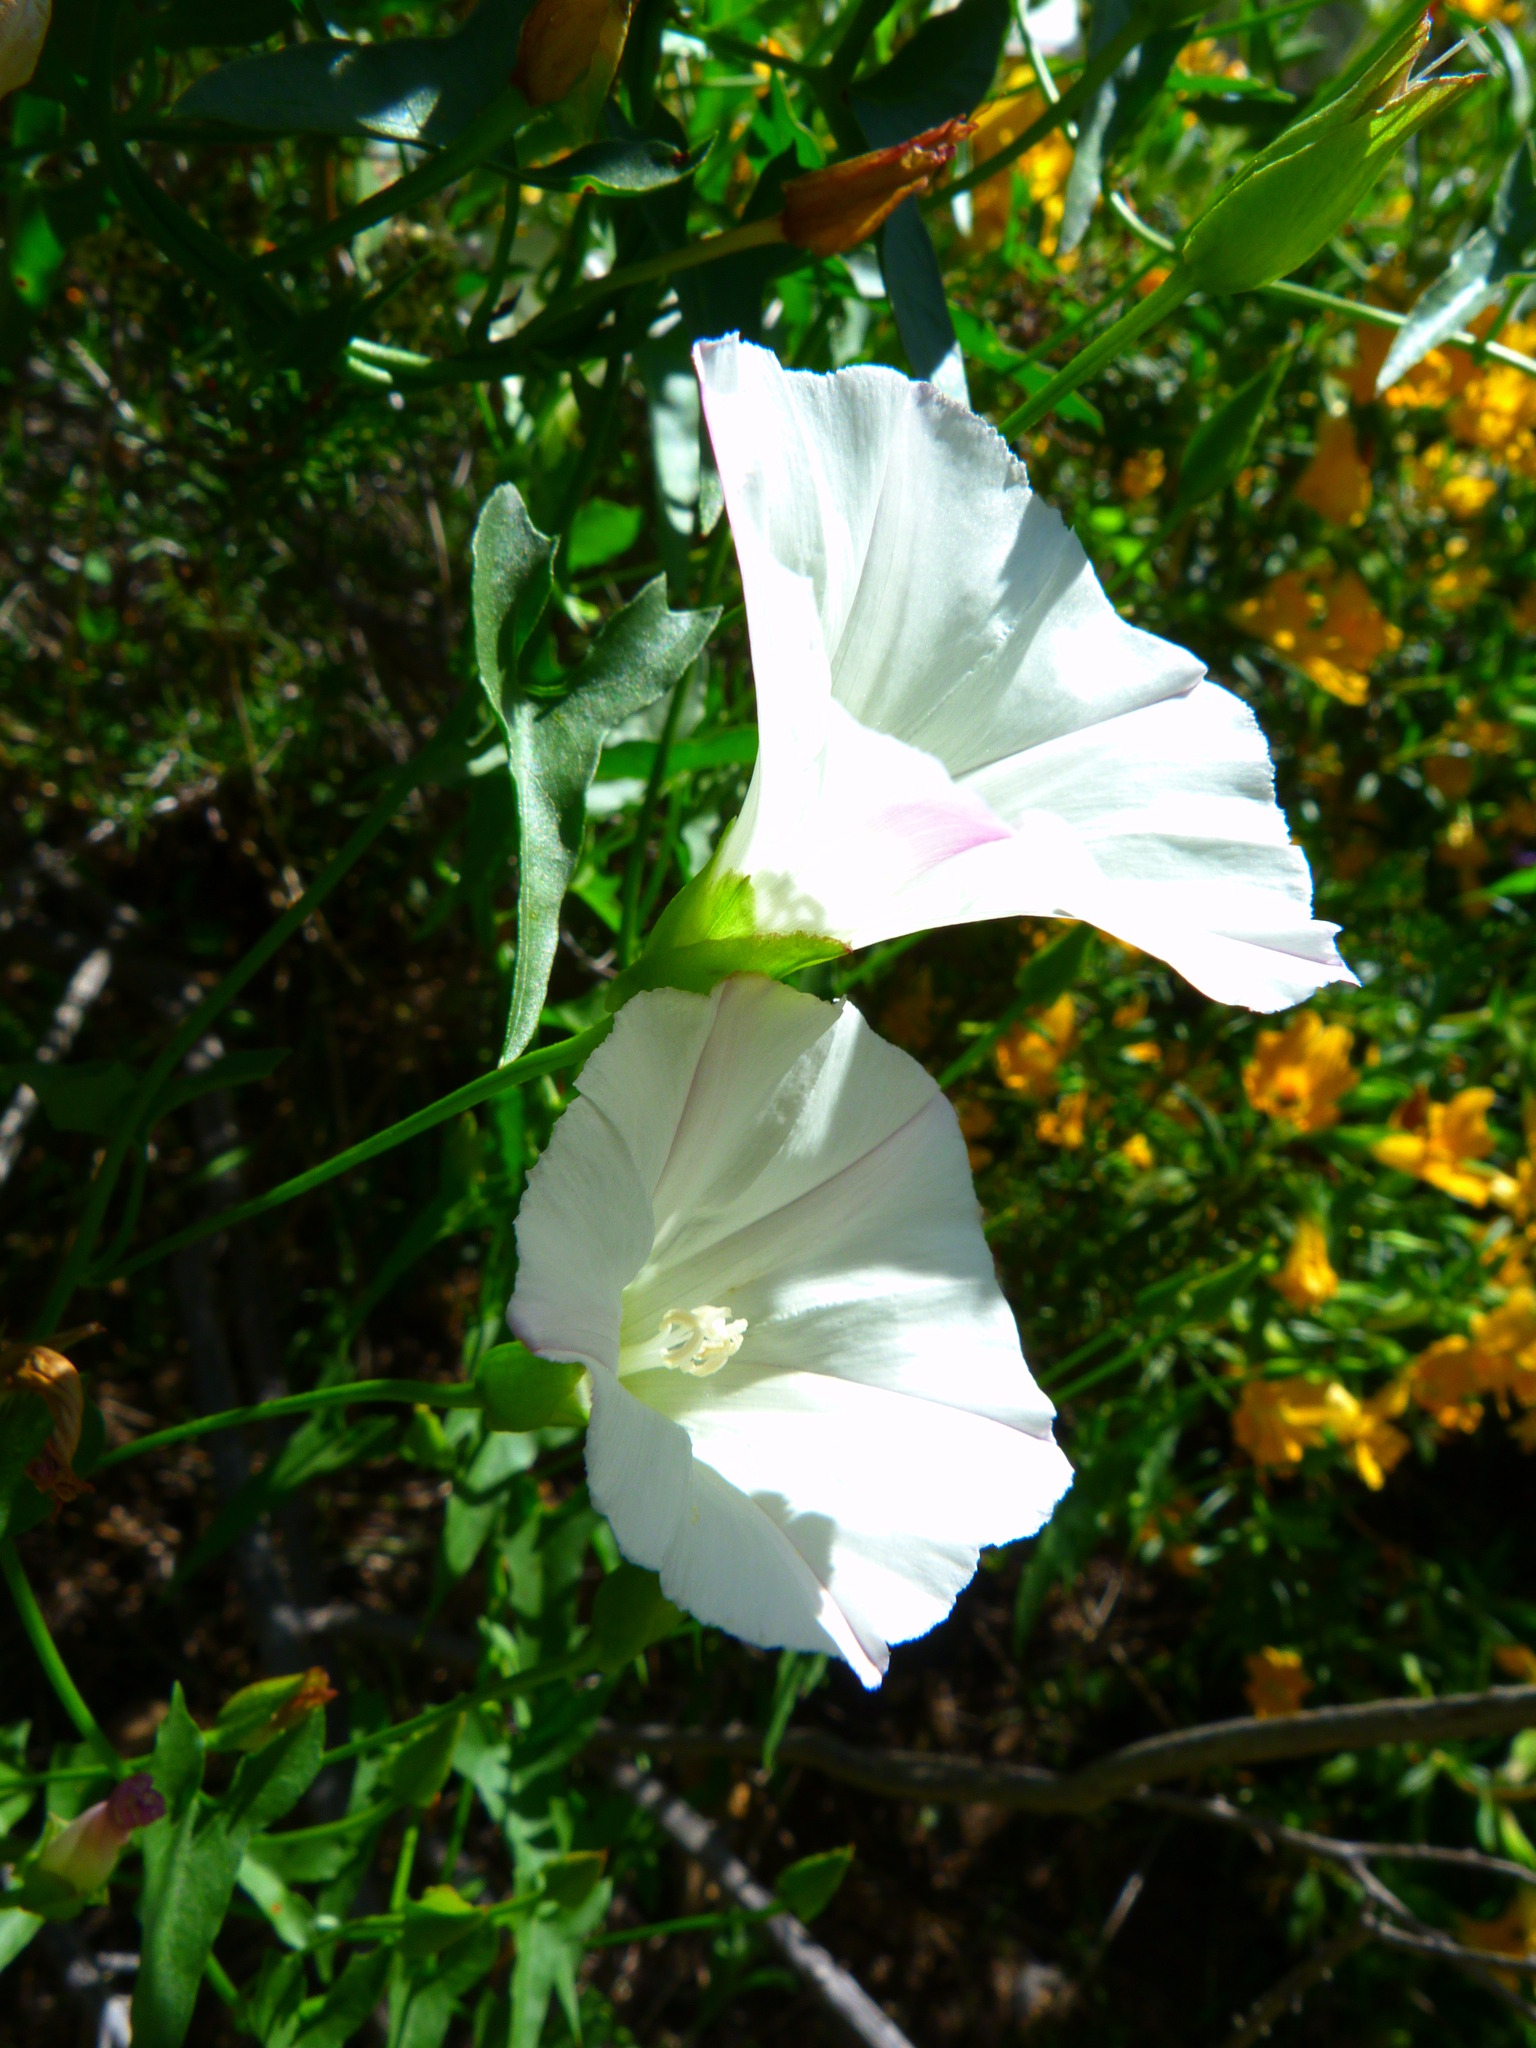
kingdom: Plantae
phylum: Tracheophyta
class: Magnoliopsida
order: Solanales
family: Convolvulaceae
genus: Calystegia
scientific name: Calystegia macrostegia
